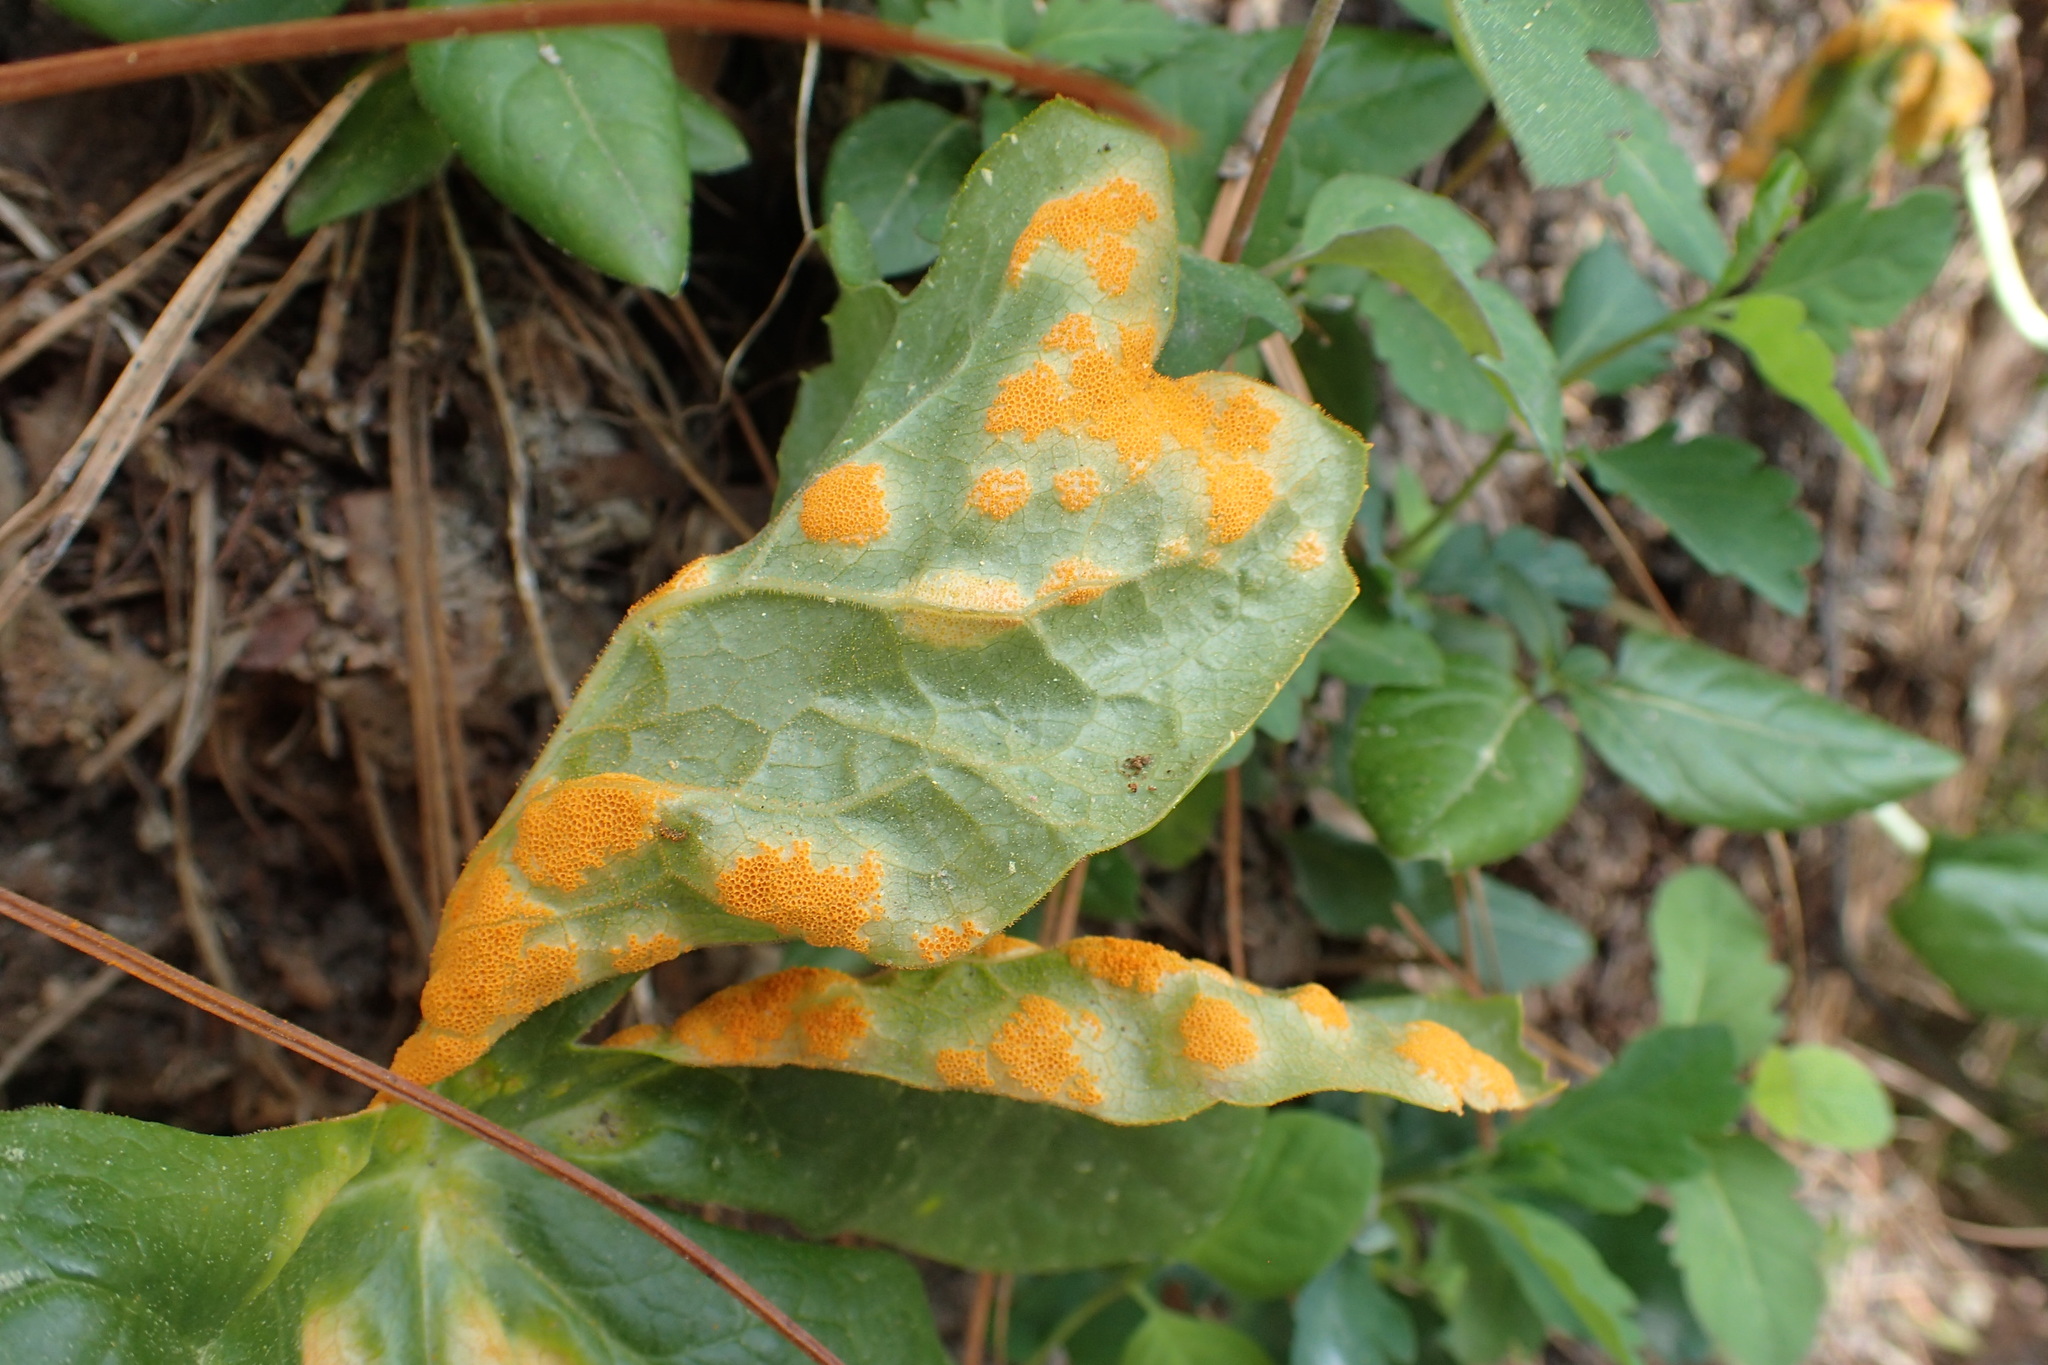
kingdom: Fungi
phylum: Basidiomycota
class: Pucciniomycetes
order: Pucciniales
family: Pucciniaceae
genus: Puccinia
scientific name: Puccinia podophylli
